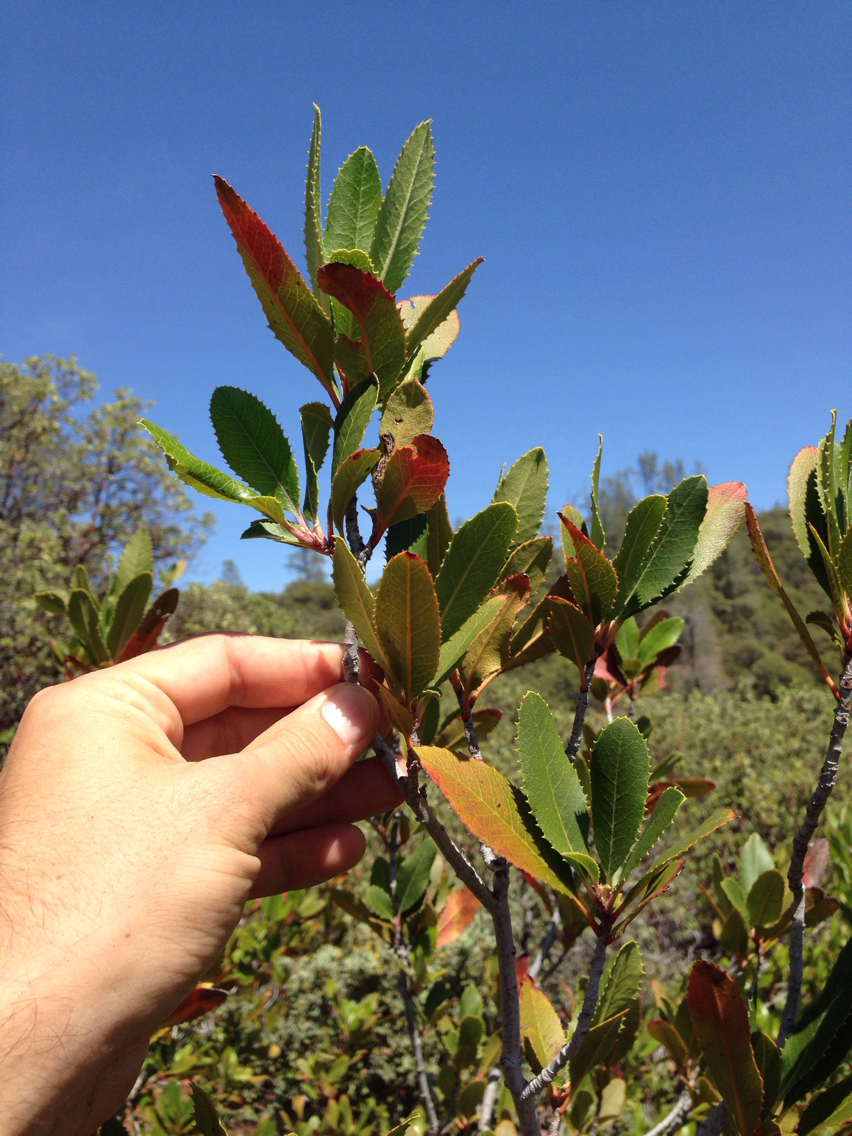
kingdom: Plantae
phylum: Tracheophyta
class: Magnoliopsida
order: Rosales
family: Rosaceae
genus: Heteromeles
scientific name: Heteromeles arbutifolia
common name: California-holly
